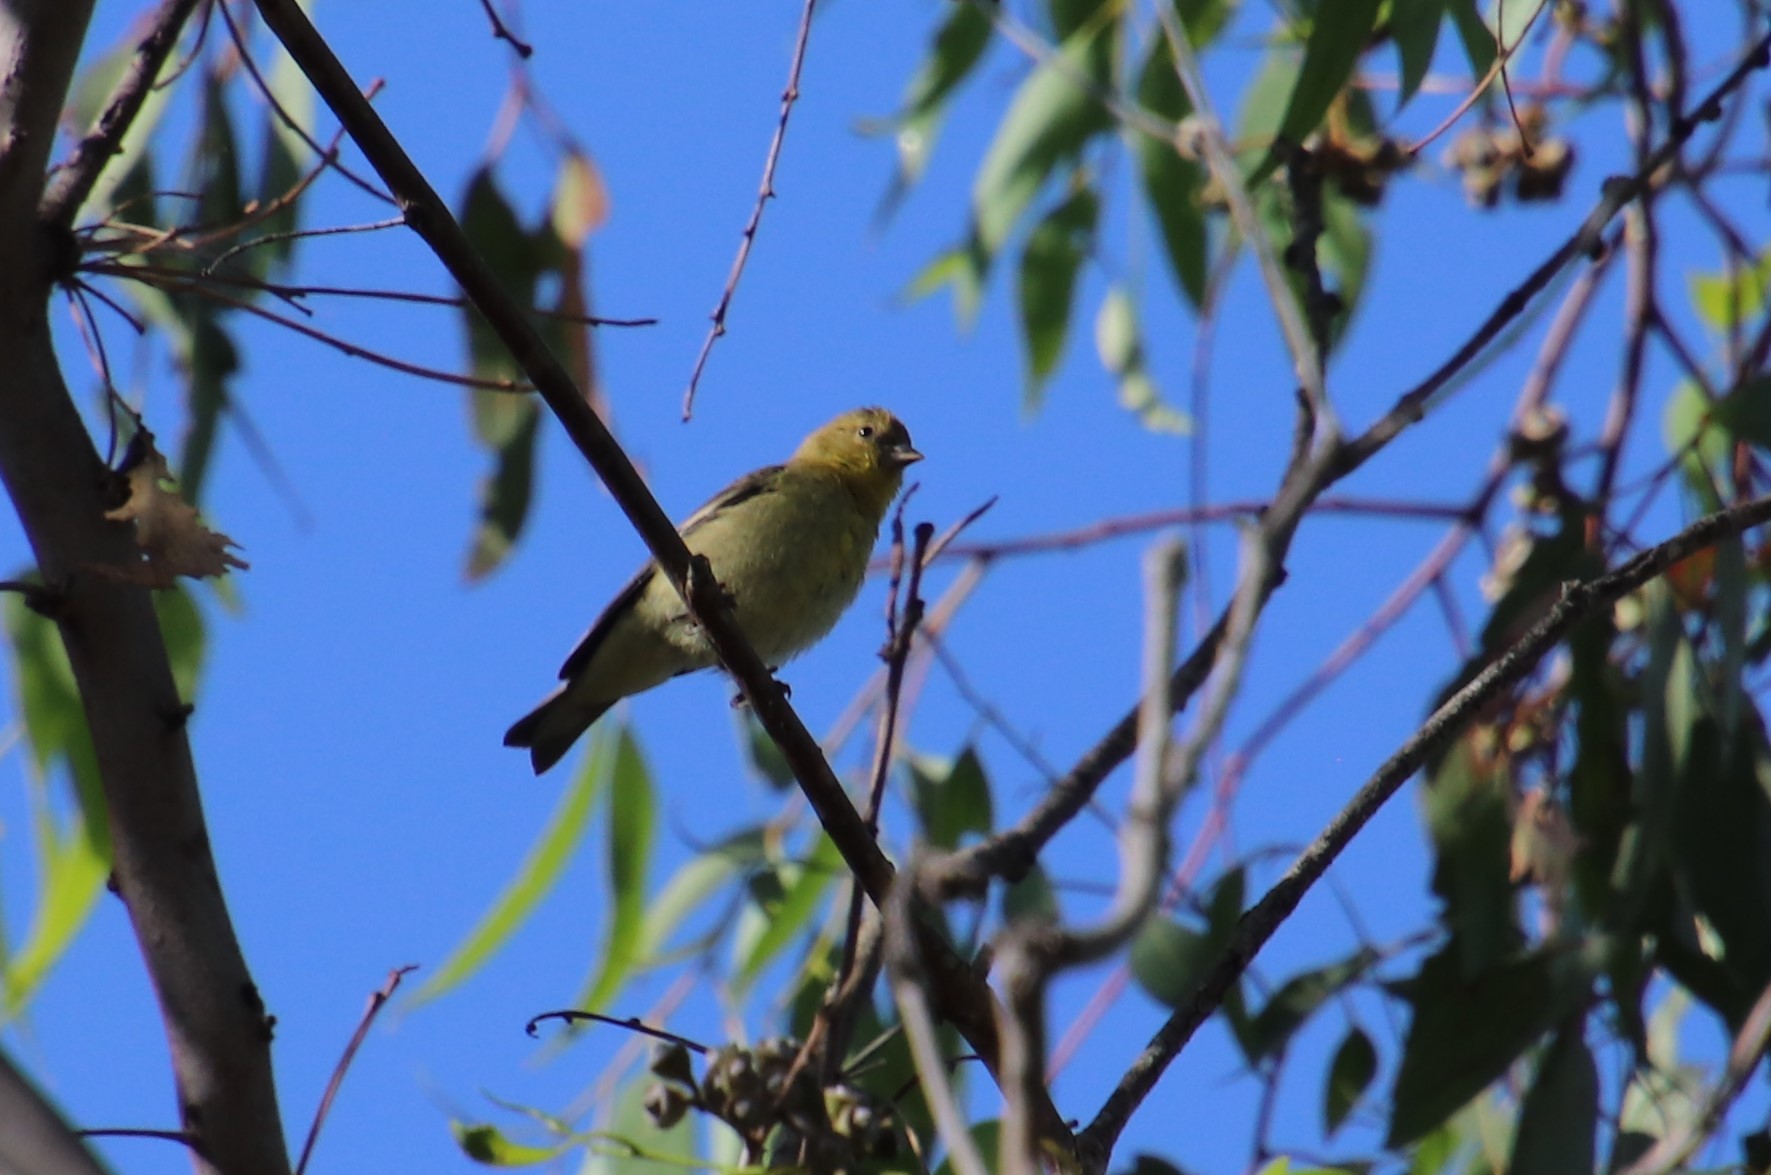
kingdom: Animalia
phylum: Chordata
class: Aves
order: Passeriformes
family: Fringillidae
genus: Spinus
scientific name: Spinus psaltria
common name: Lesser goldfinch
